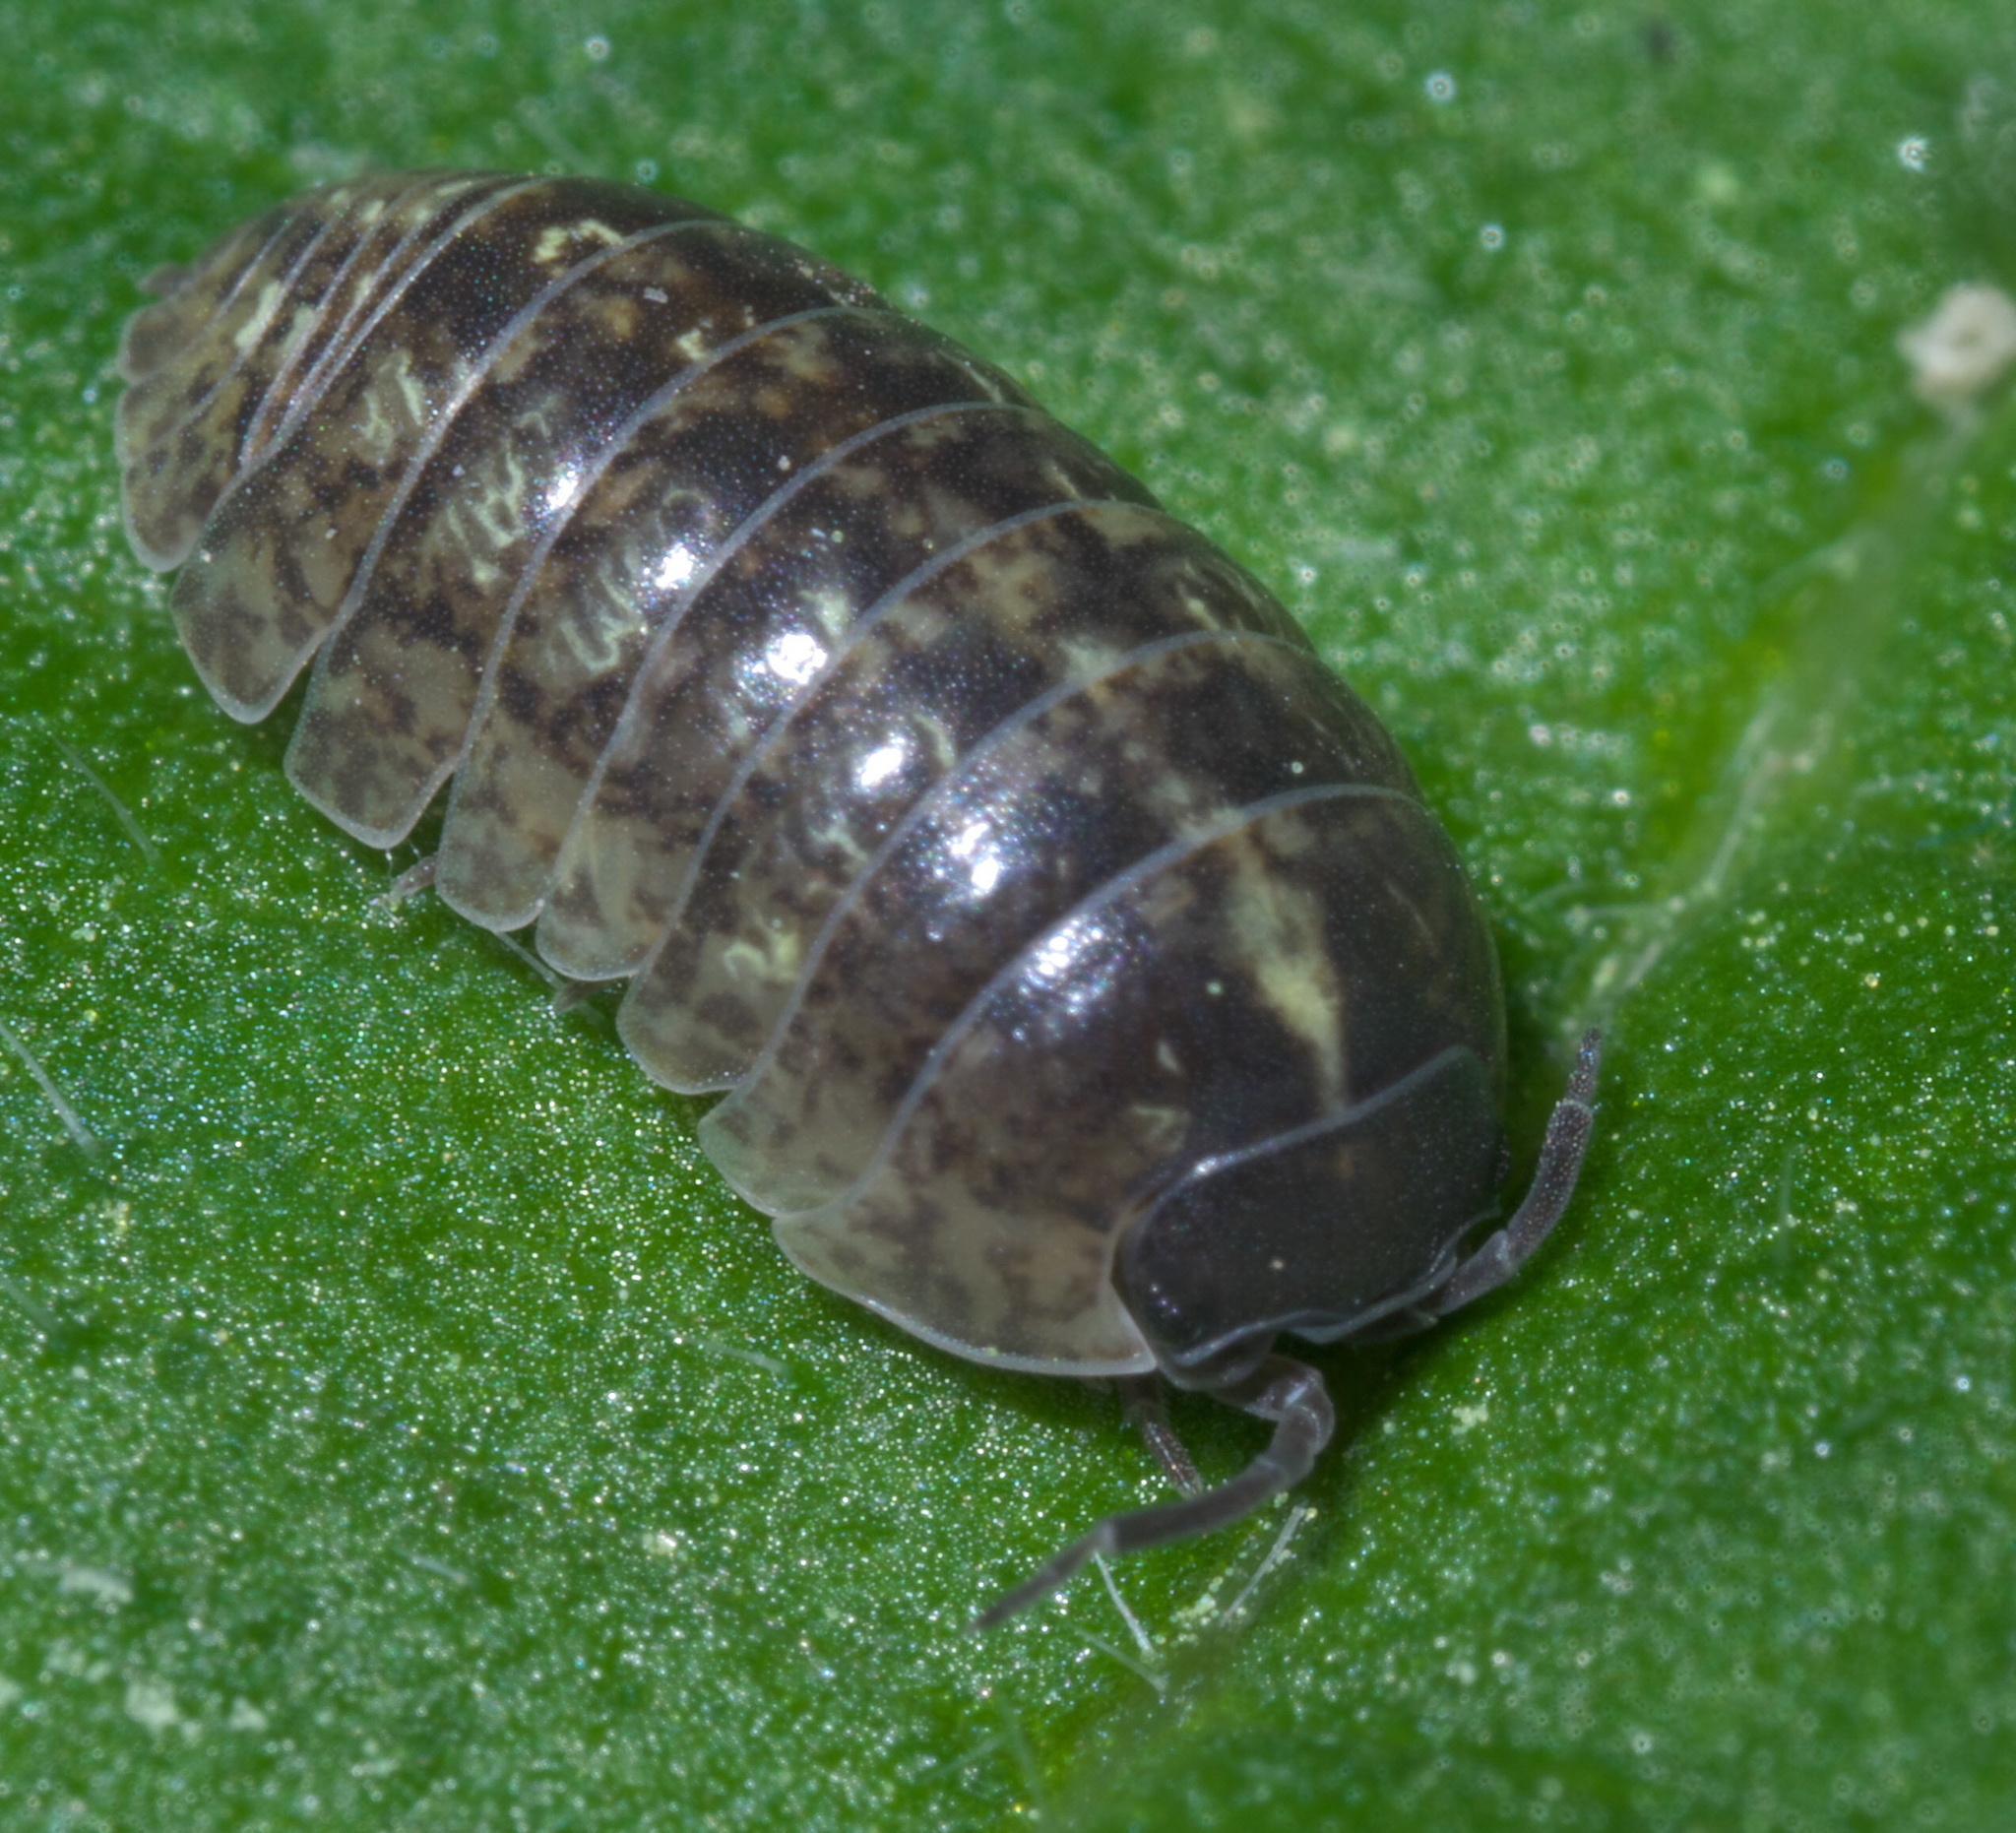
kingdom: Animalia
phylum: Arthropoda
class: Malacostraca
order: Isopoda
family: Armadillidiidae
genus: Armadillidium
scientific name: Armadillidium vulgare
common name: Common pill woodlouse
